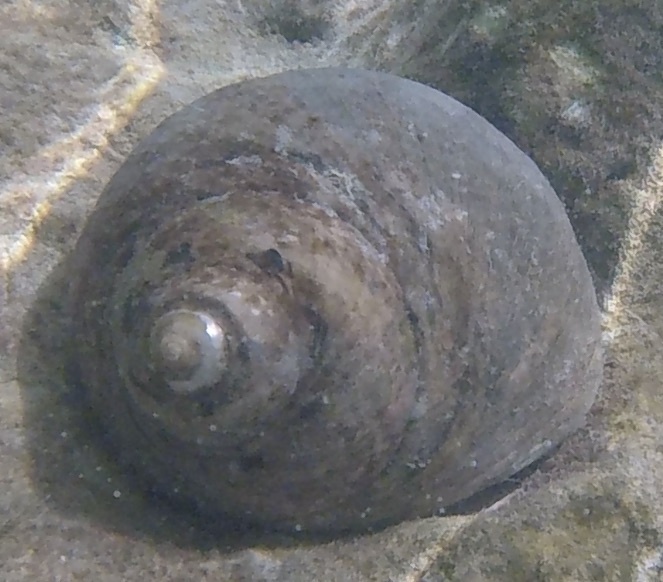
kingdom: Animalia
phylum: Mollusca
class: Gastropoda
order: Trochida
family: Tegulidae
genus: Cittarium
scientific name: Cittarium pica
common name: West indian topshell
